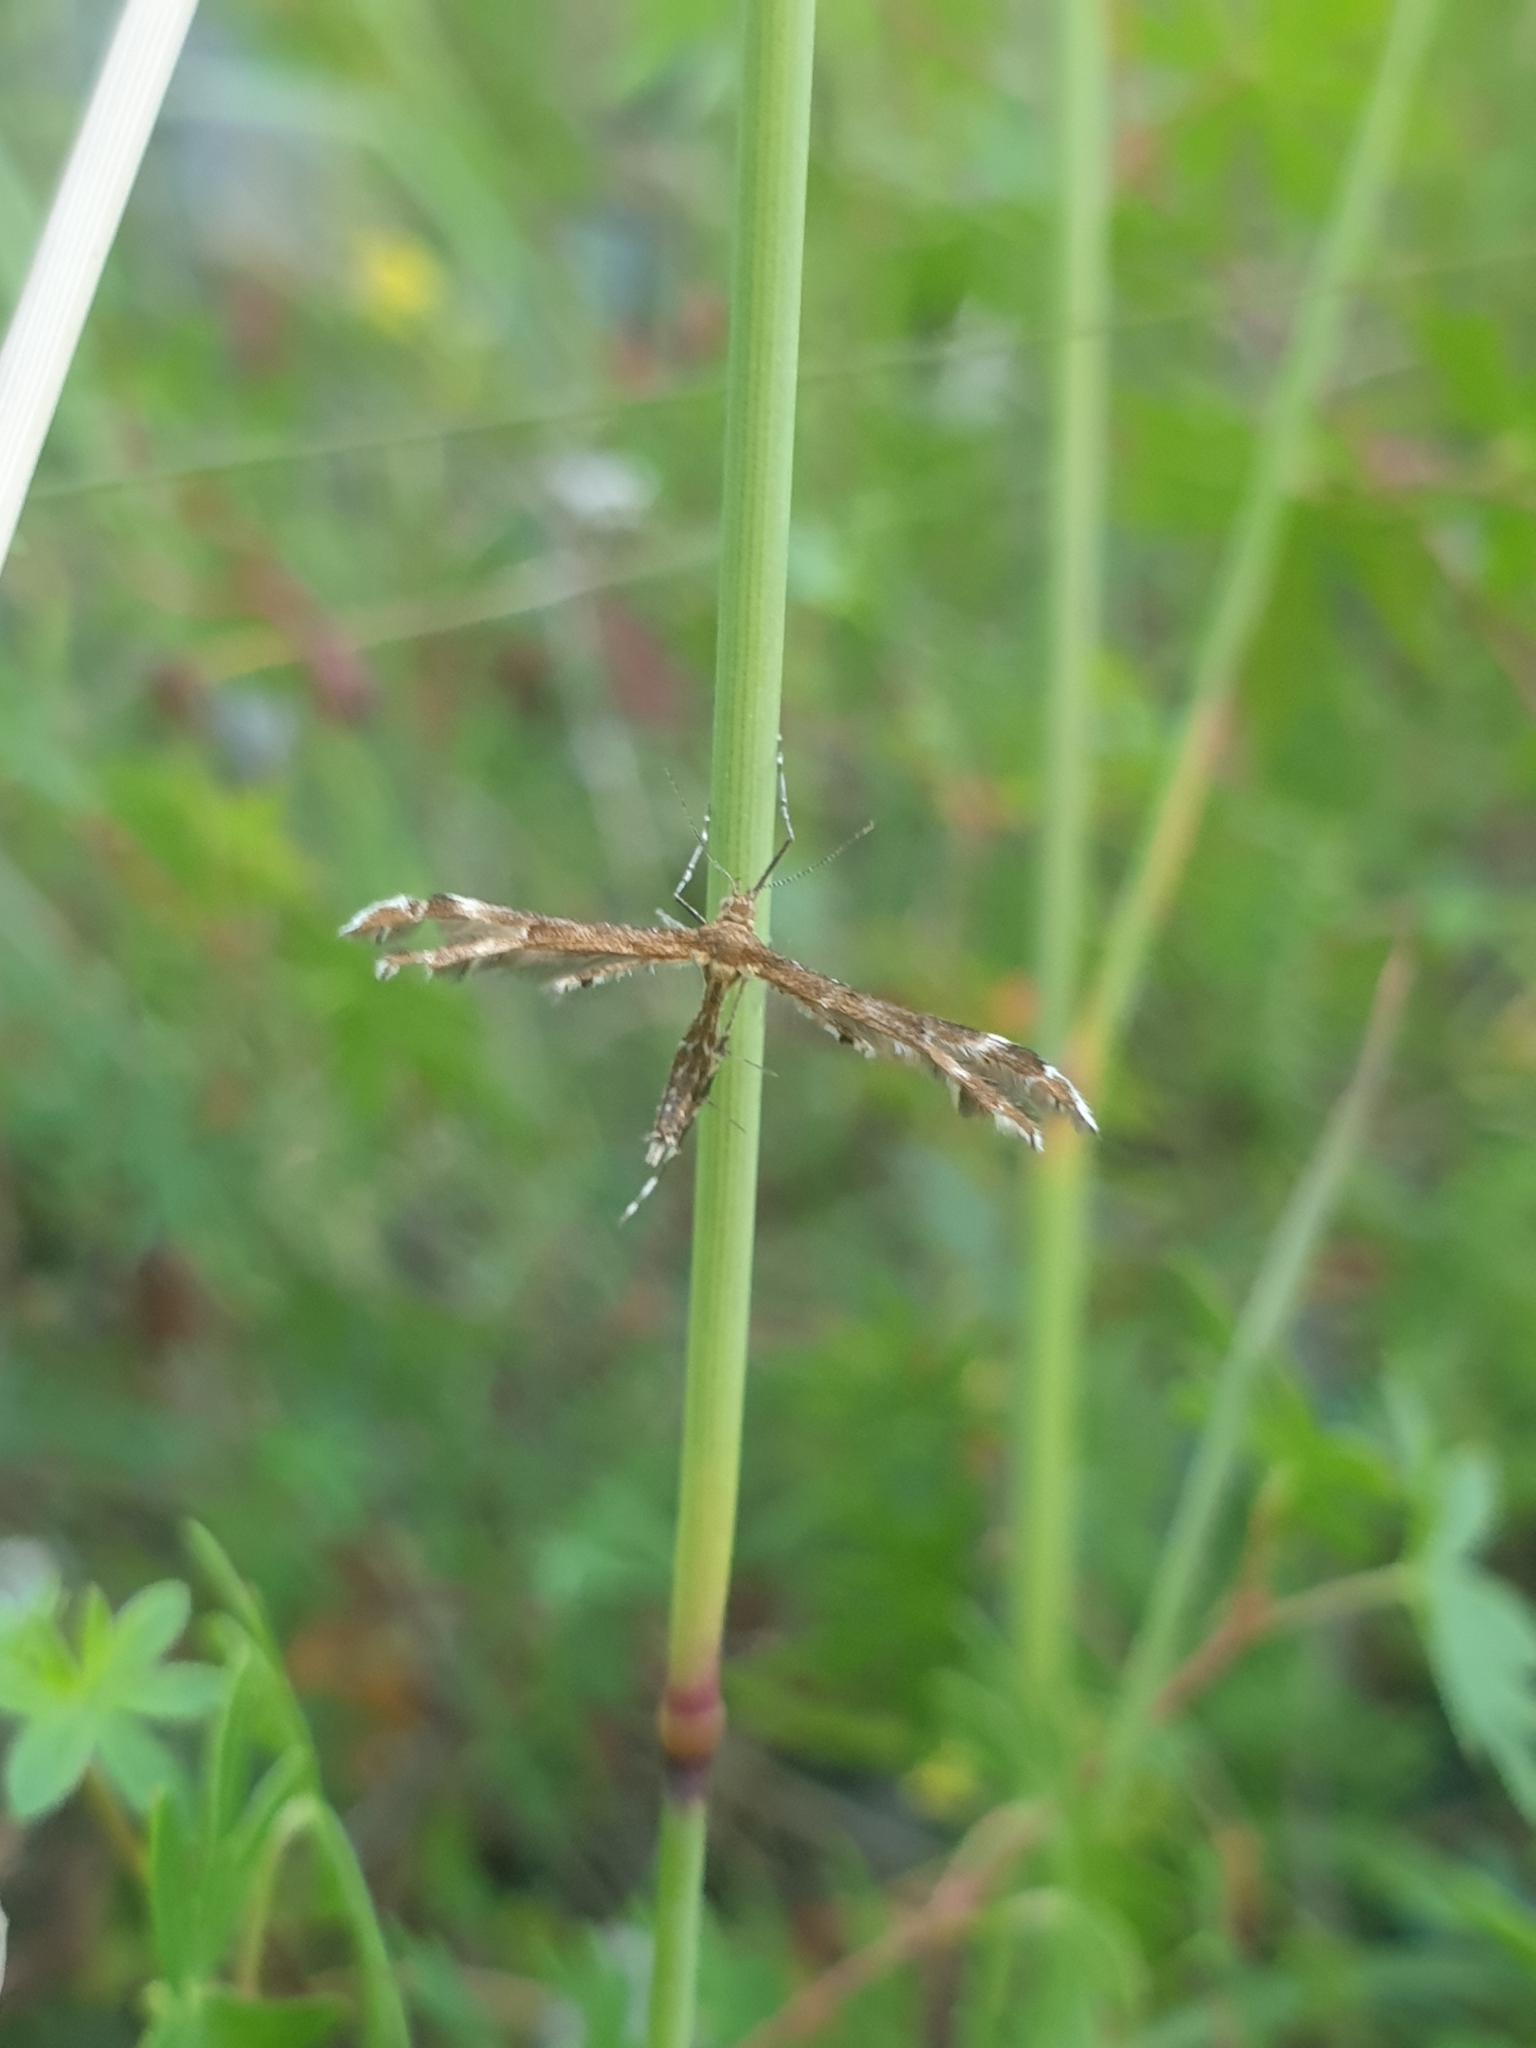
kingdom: Animalia
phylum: Arthropoda
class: Insecta
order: Lepidoptera
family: Pterophoridae
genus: Oxyptilus
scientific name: Oxyptilus pilosellae
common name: Downland plume
